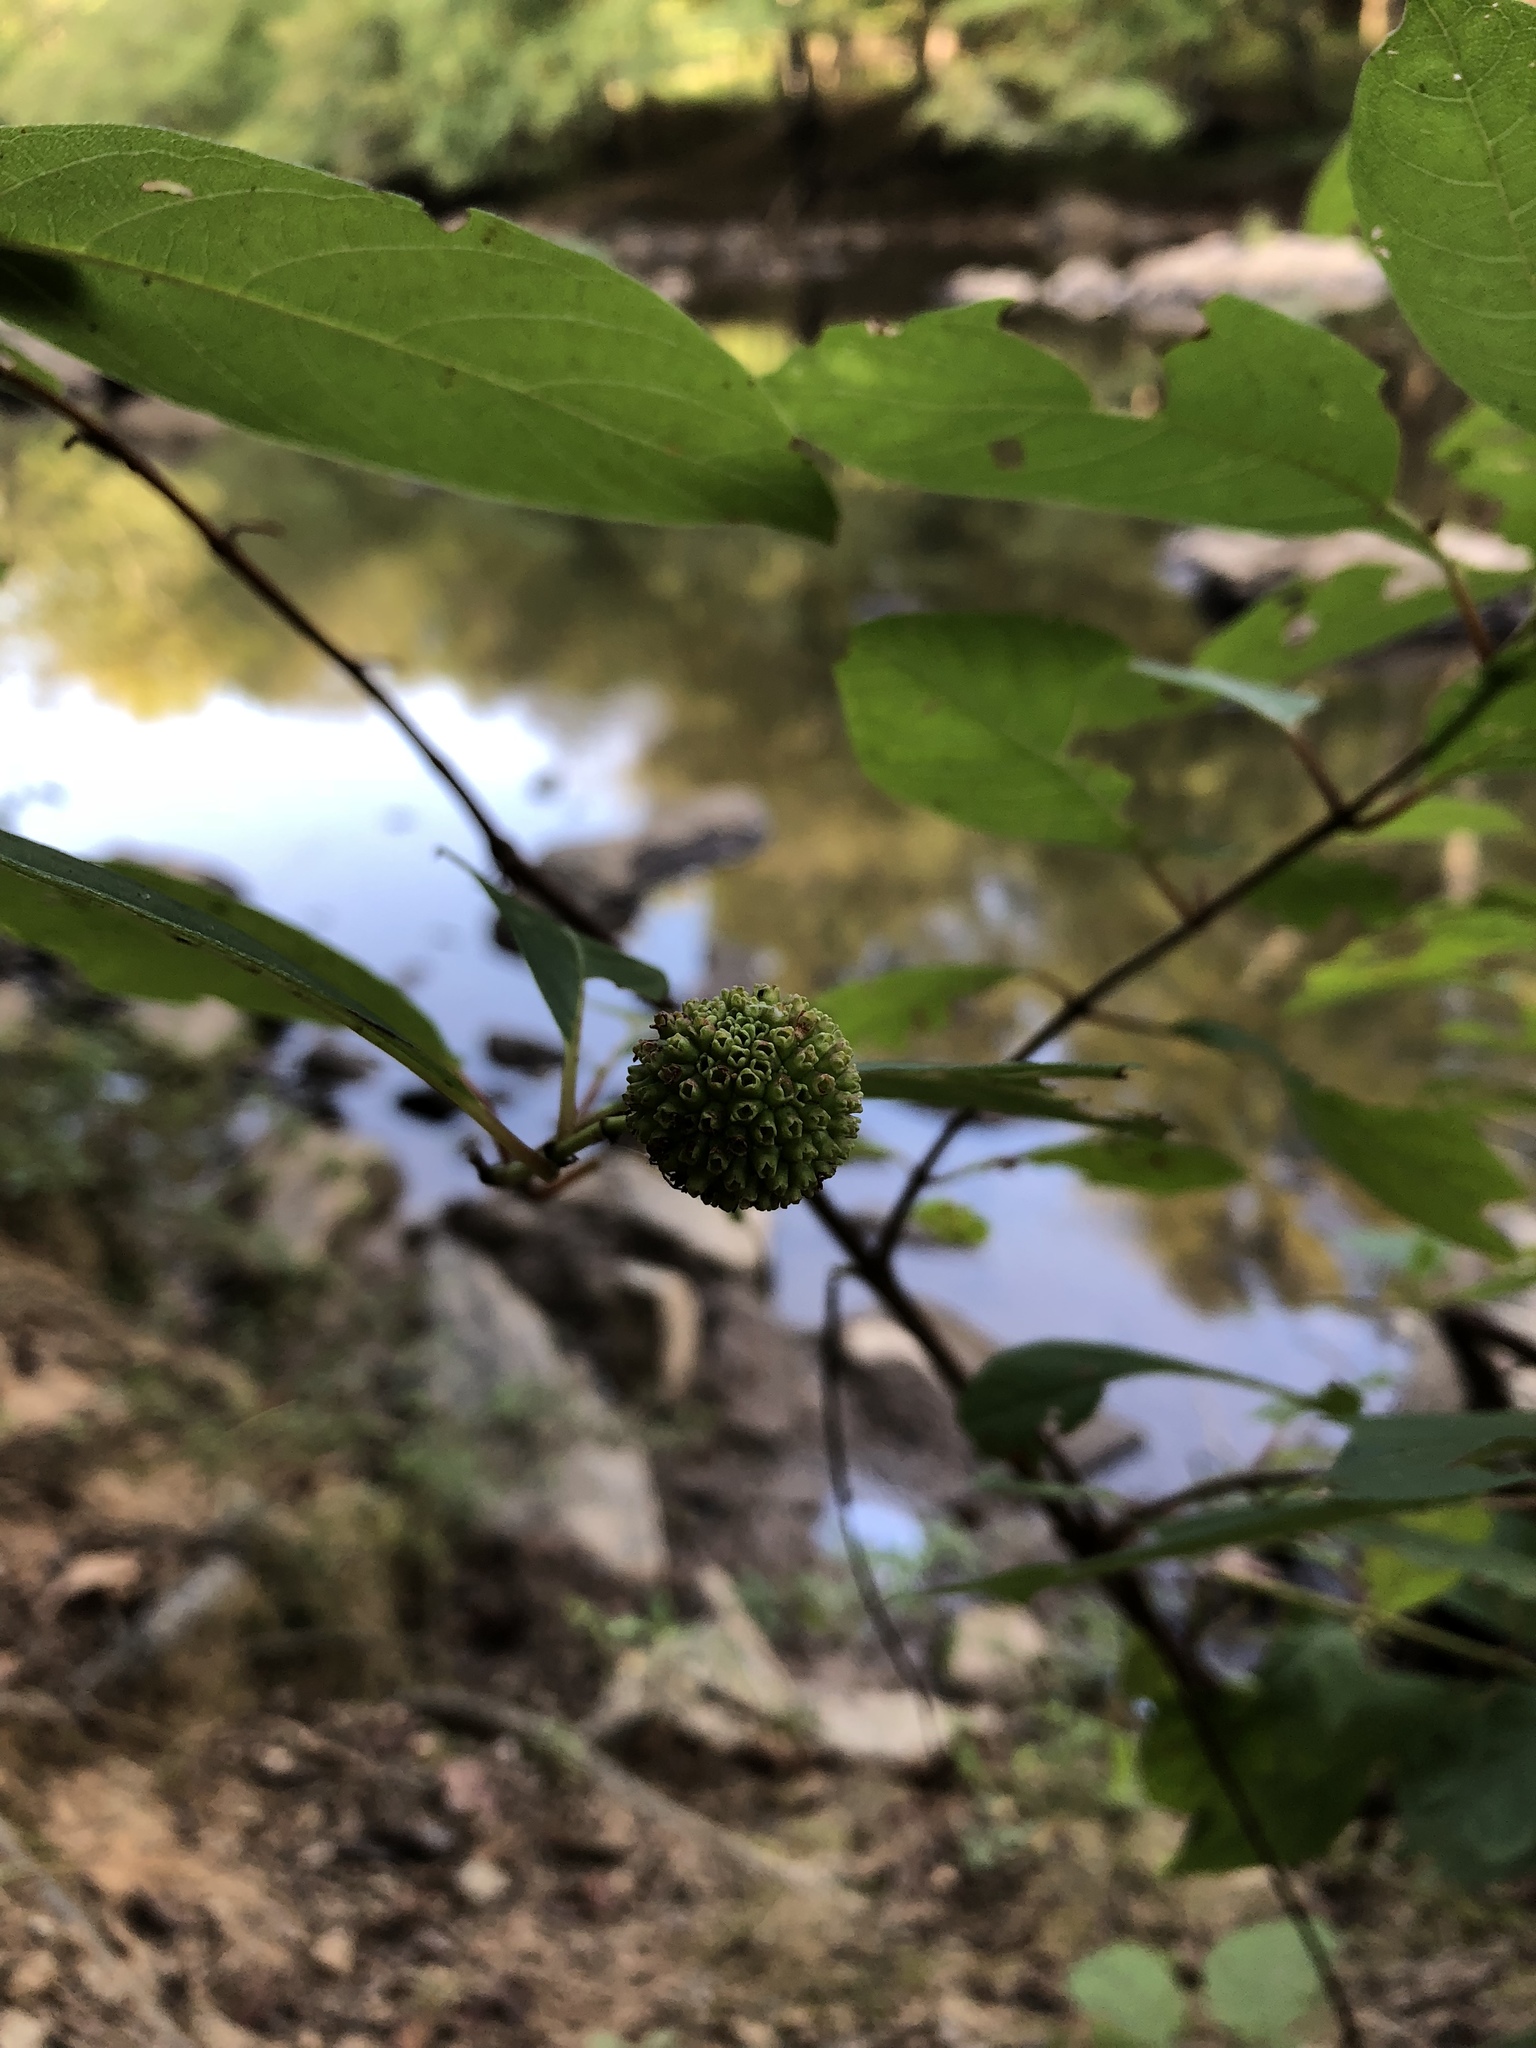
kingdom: Plantae
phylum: Tracheophyta
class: Magnoliopsida
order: Gentianales
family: Rubiaceae
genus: Cephalanthus
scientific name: Cephalanthus occidentalis
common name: Button-willow
